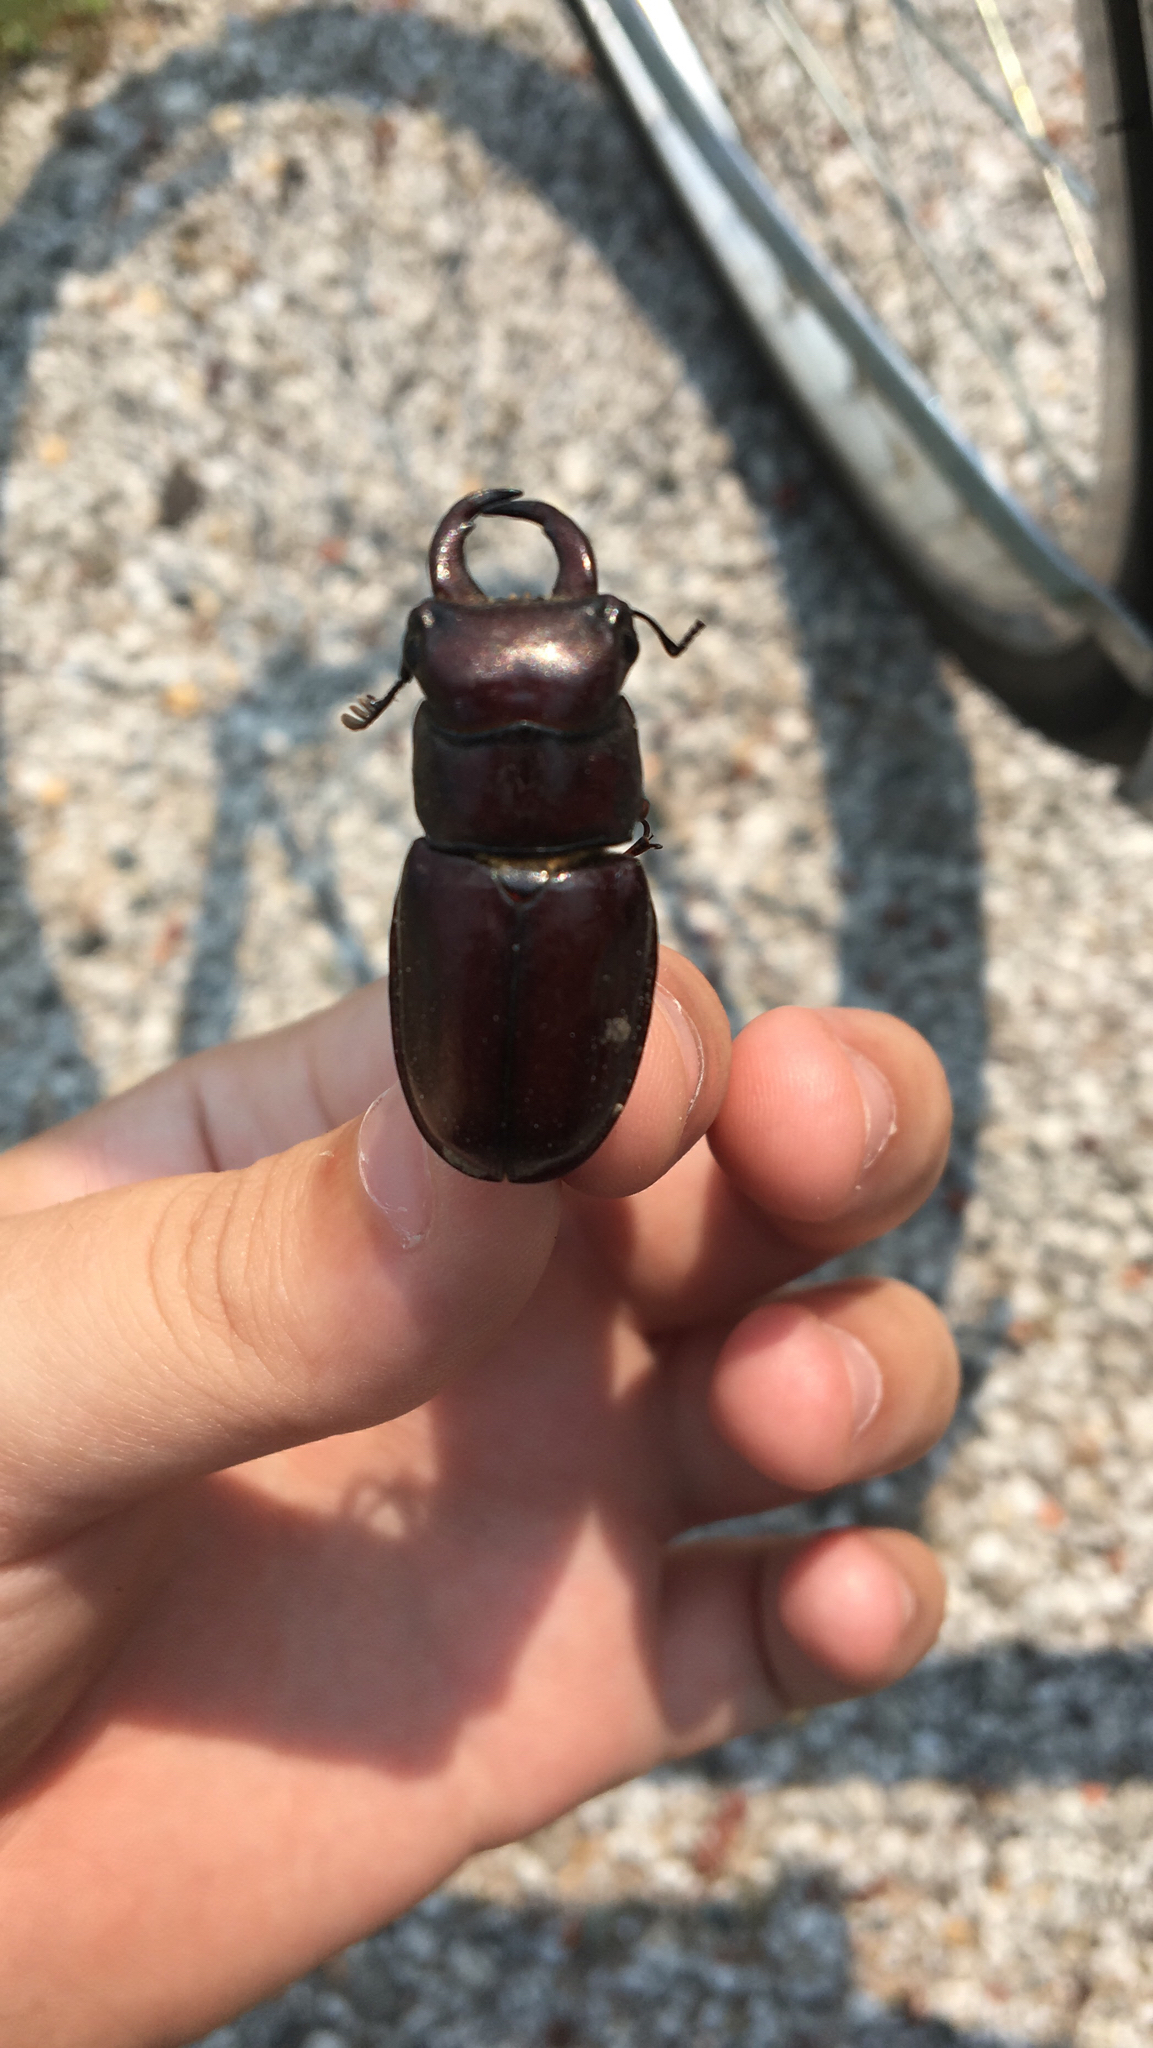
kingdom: Animalia
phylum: Arthropoda
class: Insecta
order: Coleoptera
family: Lucanidae
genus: Lucanus
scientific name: Lucanus capreolus
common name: Stag beetle
